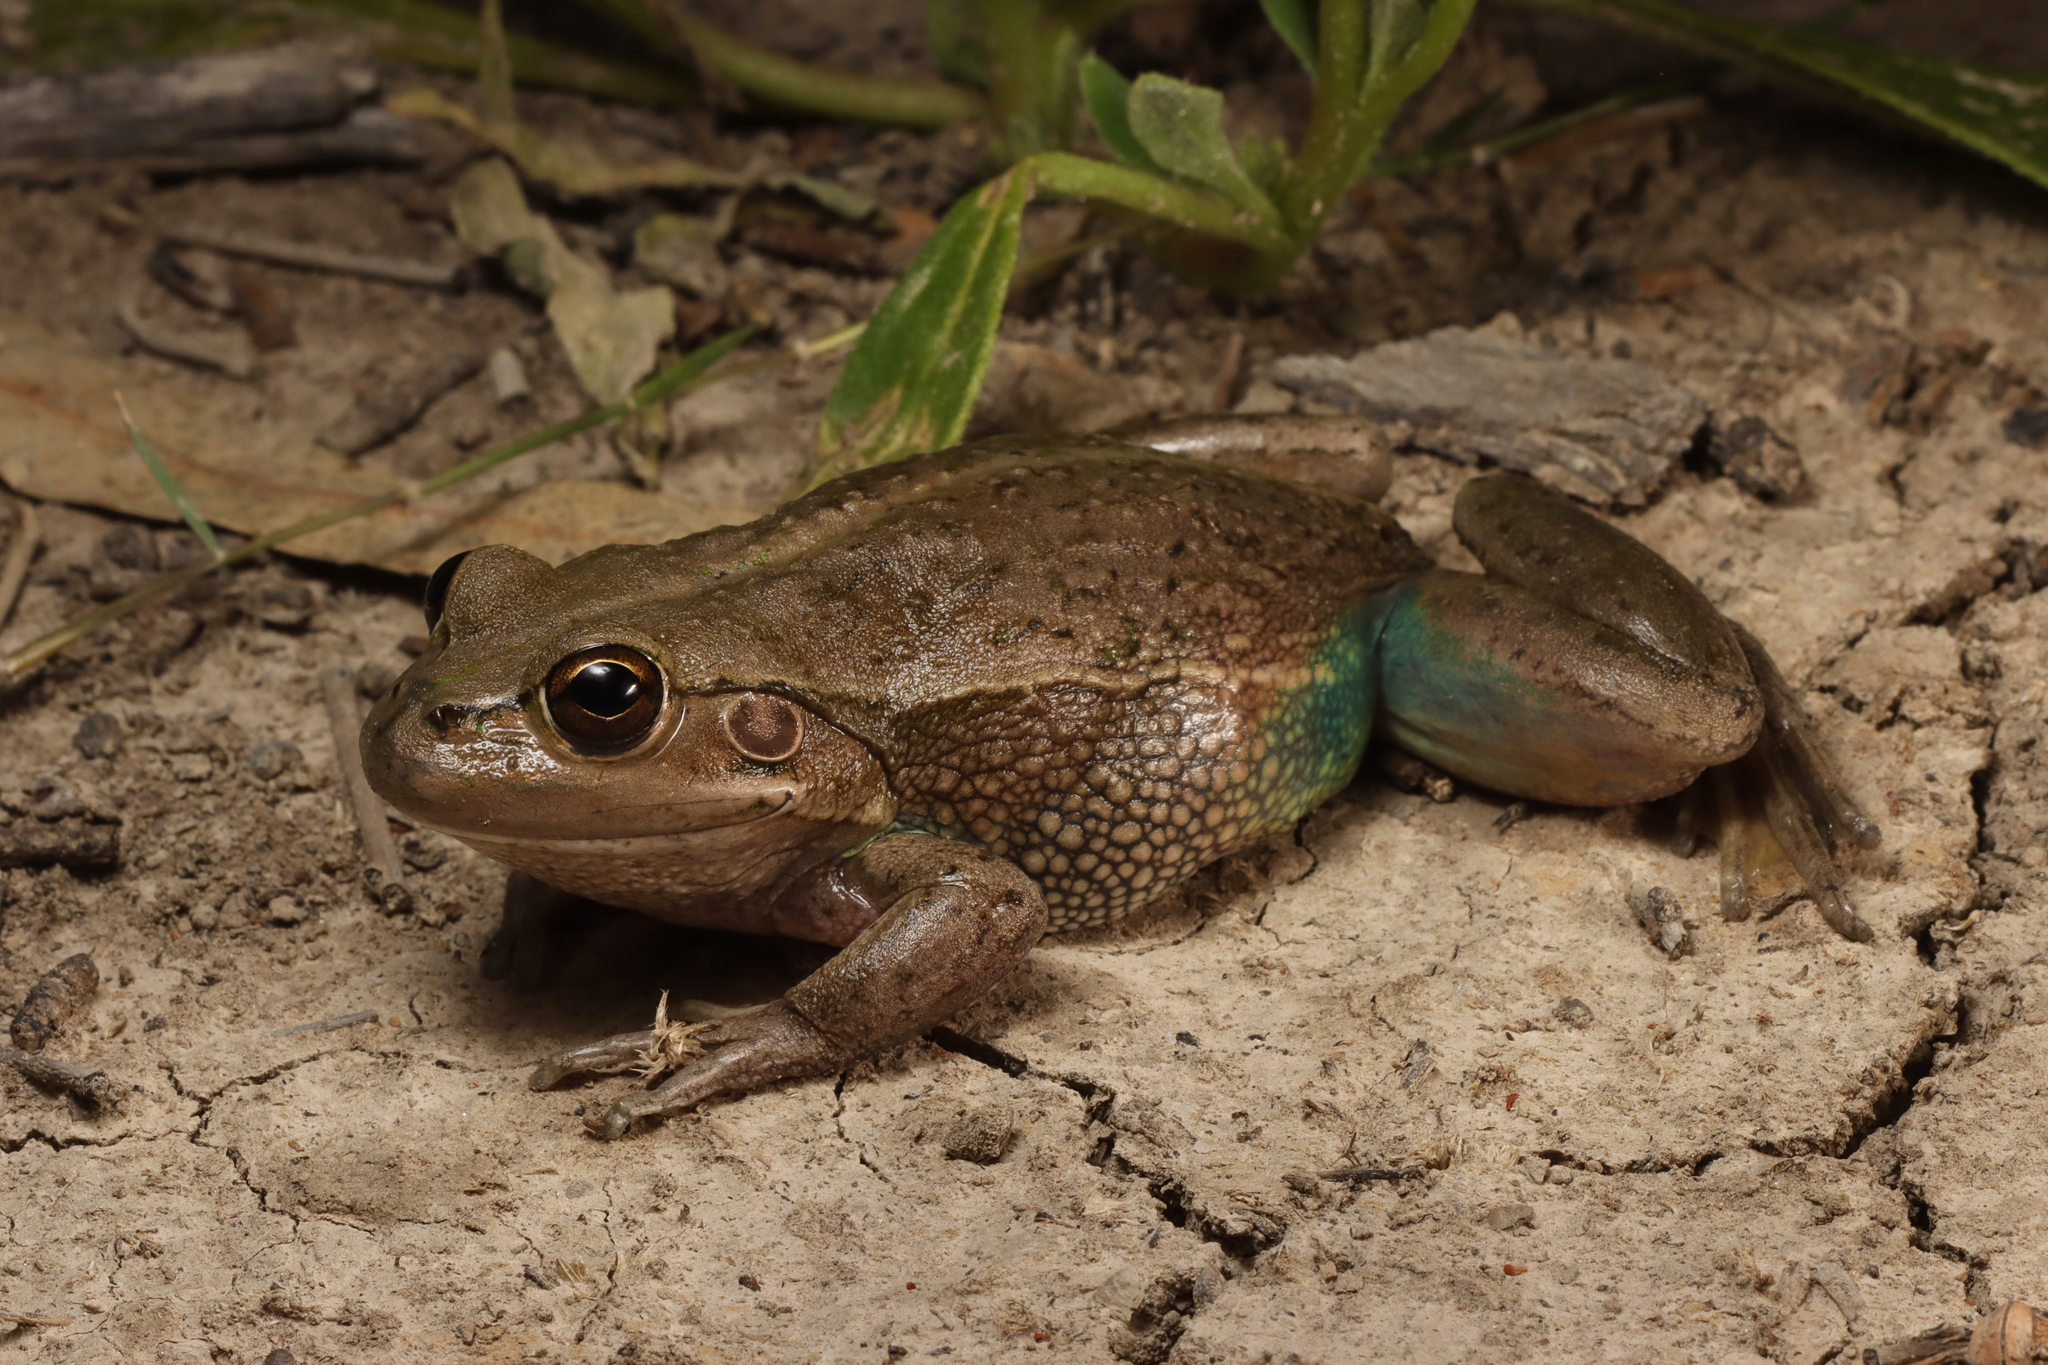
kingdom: Animalia
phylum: Chordata
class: Amphibia
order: Anura
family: Pelodryadidae
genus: Ranoidea
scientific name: Ranoidea raniformis
